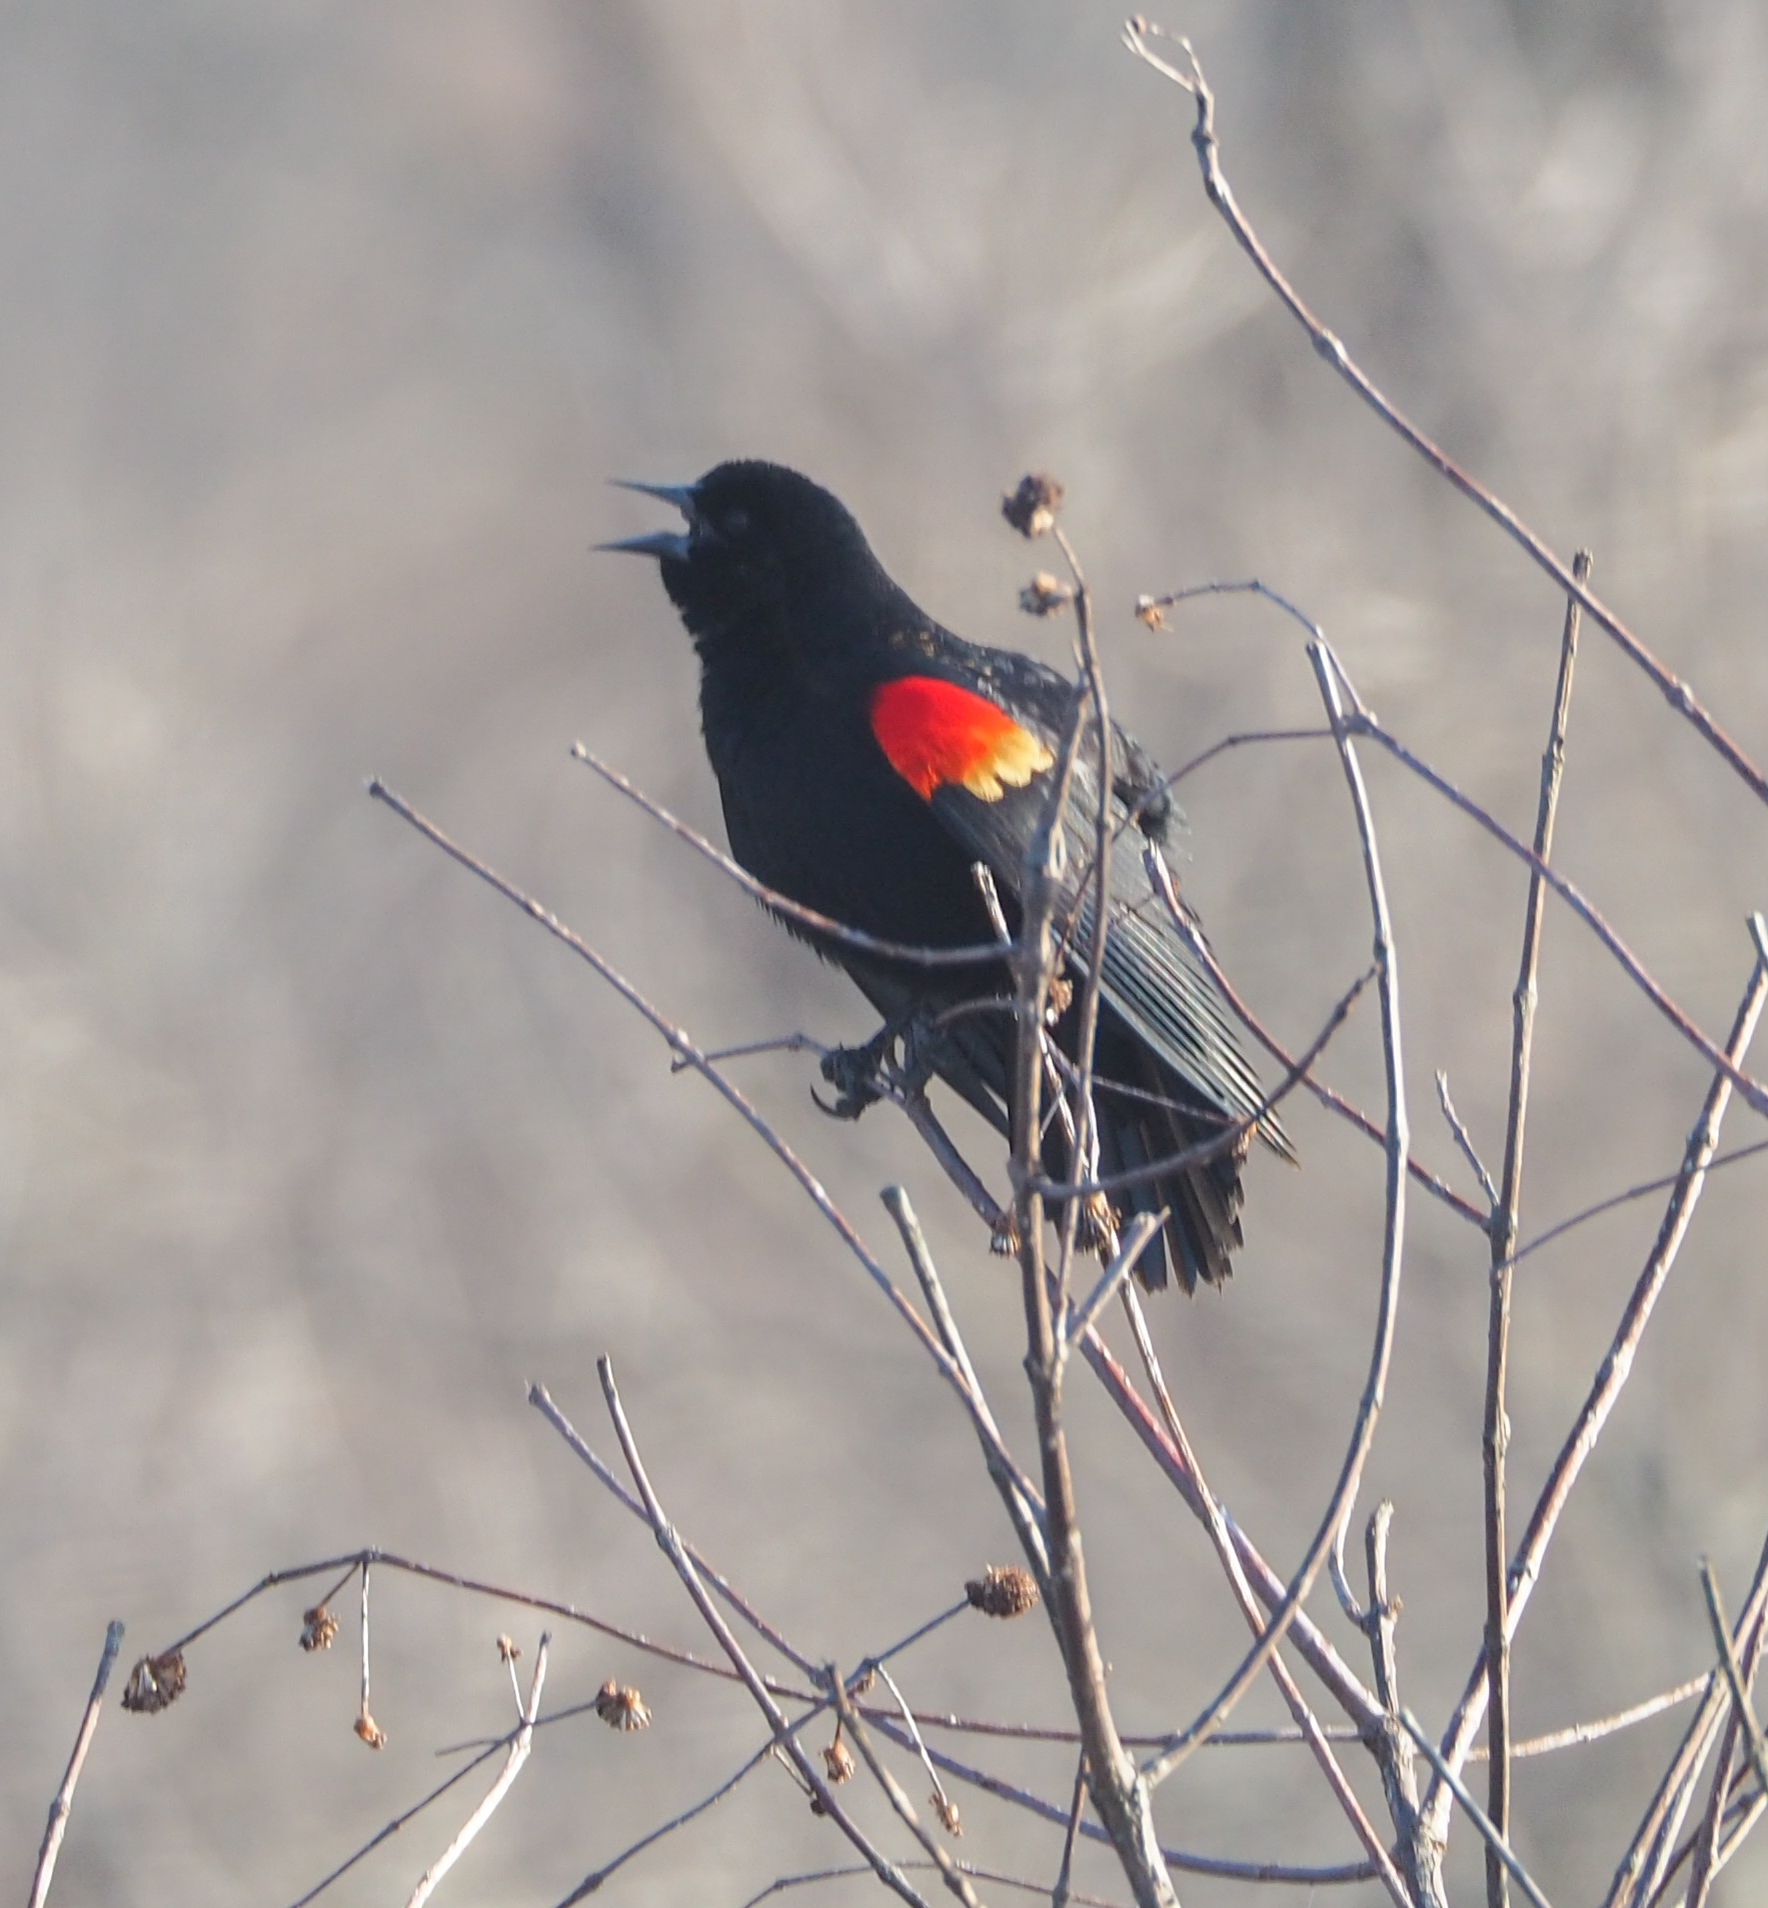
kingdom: Animalia
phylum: Chordata
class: Aves
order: Passeriformes
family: Icteridae
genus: Agelaius
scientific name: Agelaius phoeniceus
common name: Red-winged blackbird
